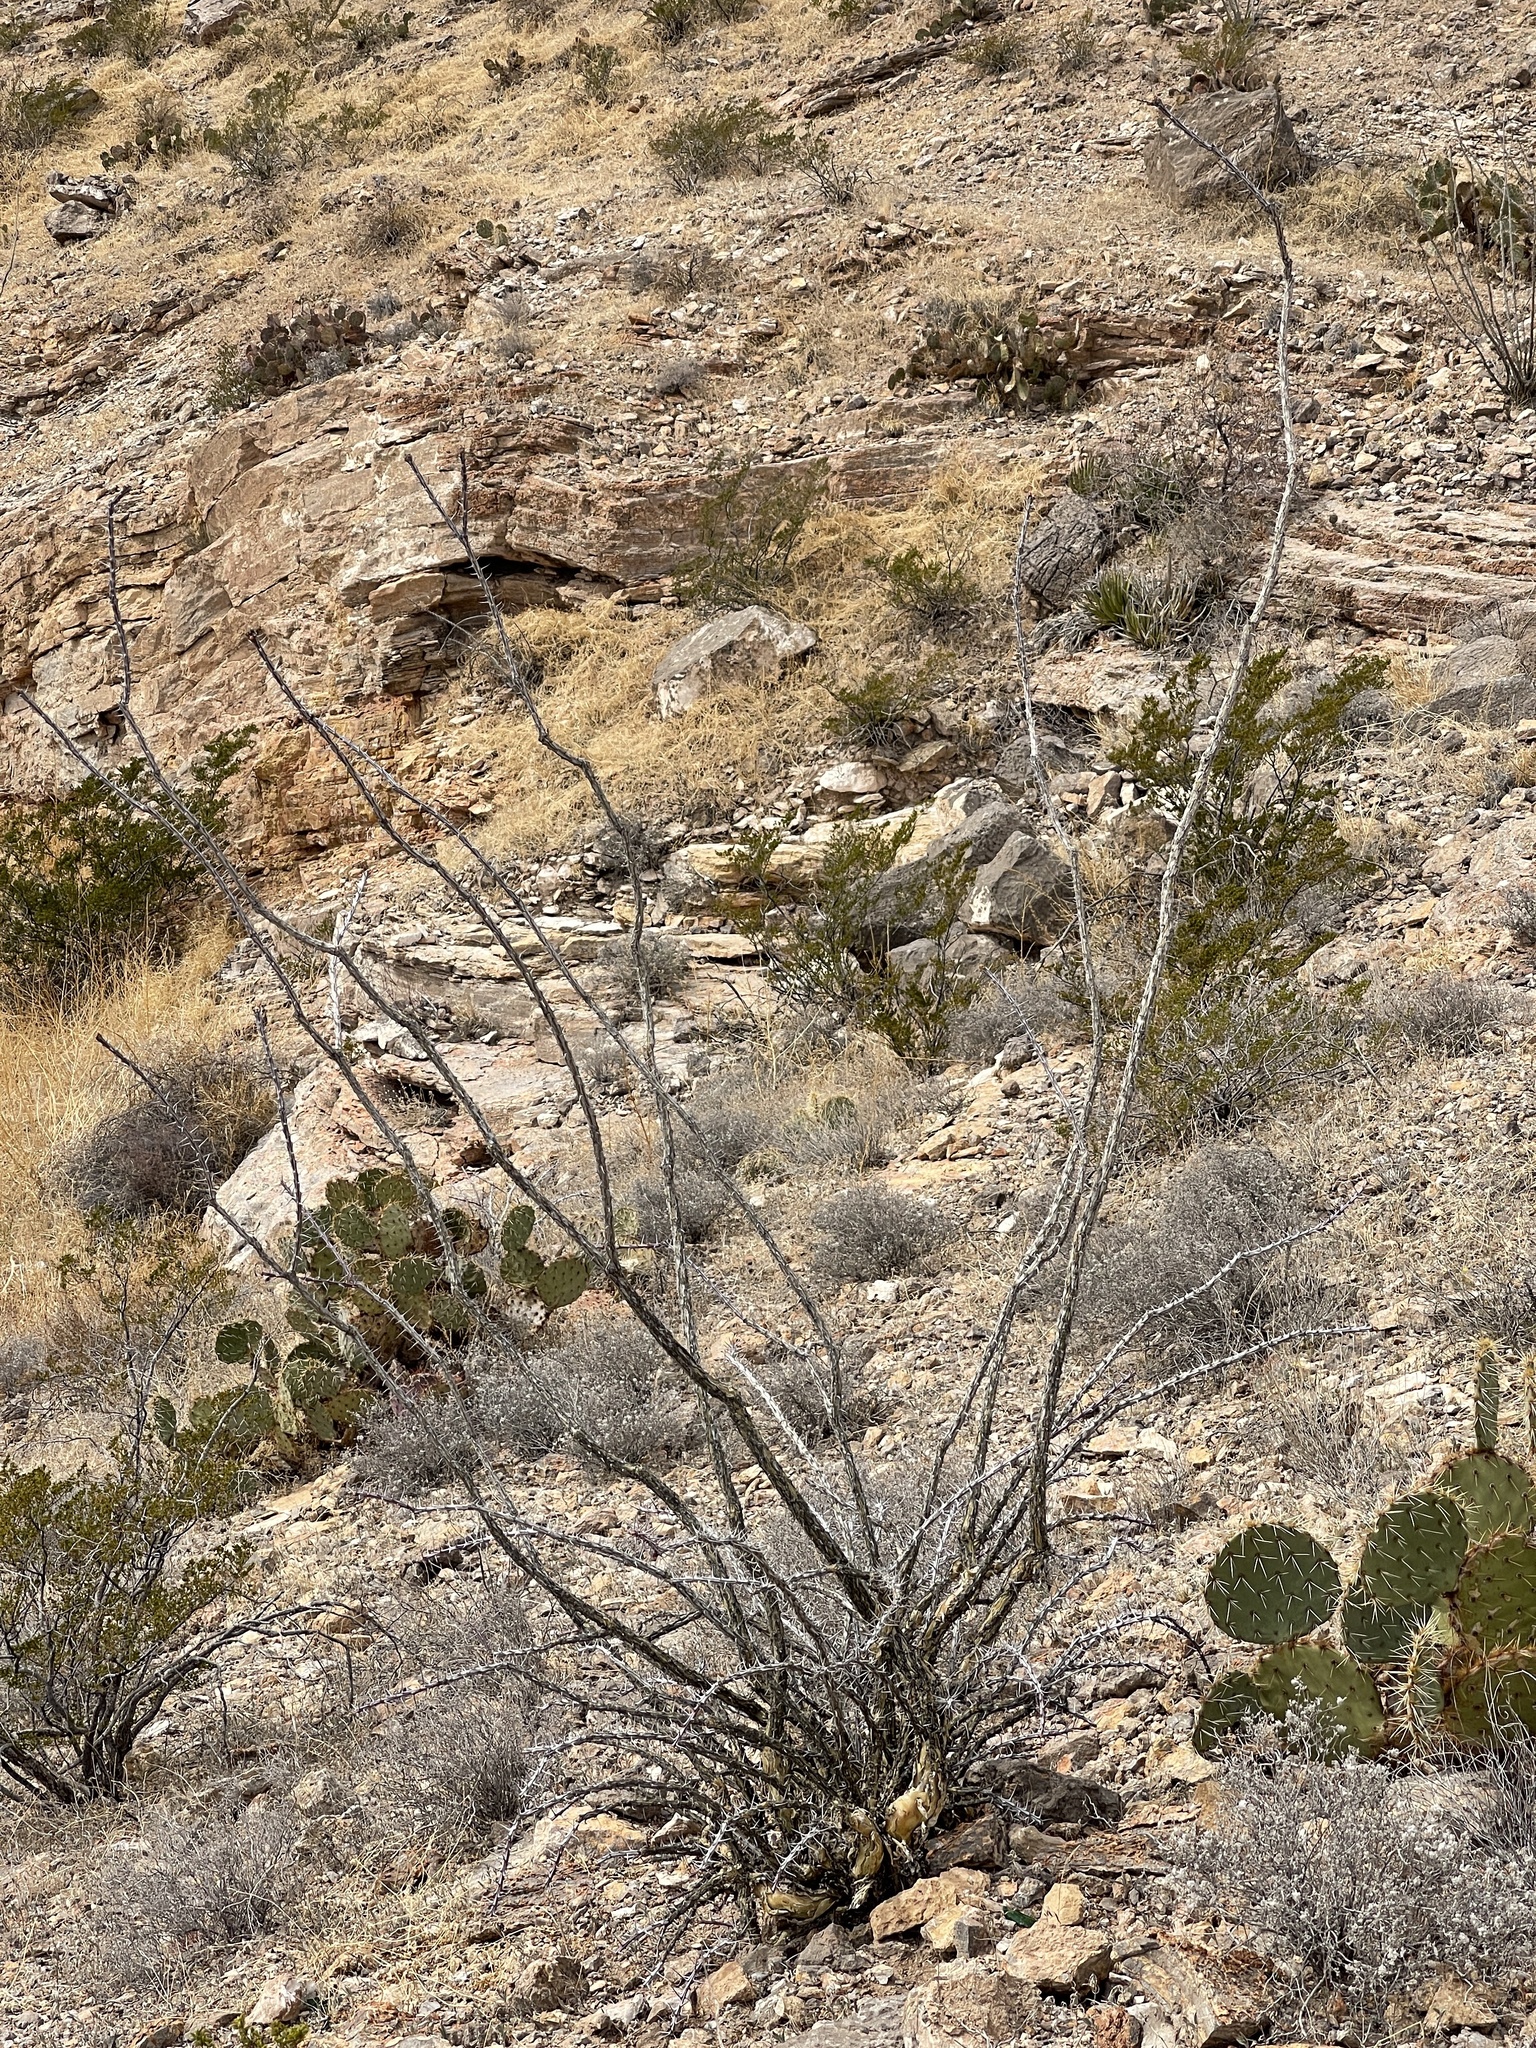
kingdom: Plantae
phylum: Tracheophyta
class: Magnoliopsida
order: Ericales
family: Fouquieriaceae
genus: Fouquieria
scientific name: Fouquieria splendens
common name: Vine-cactus
